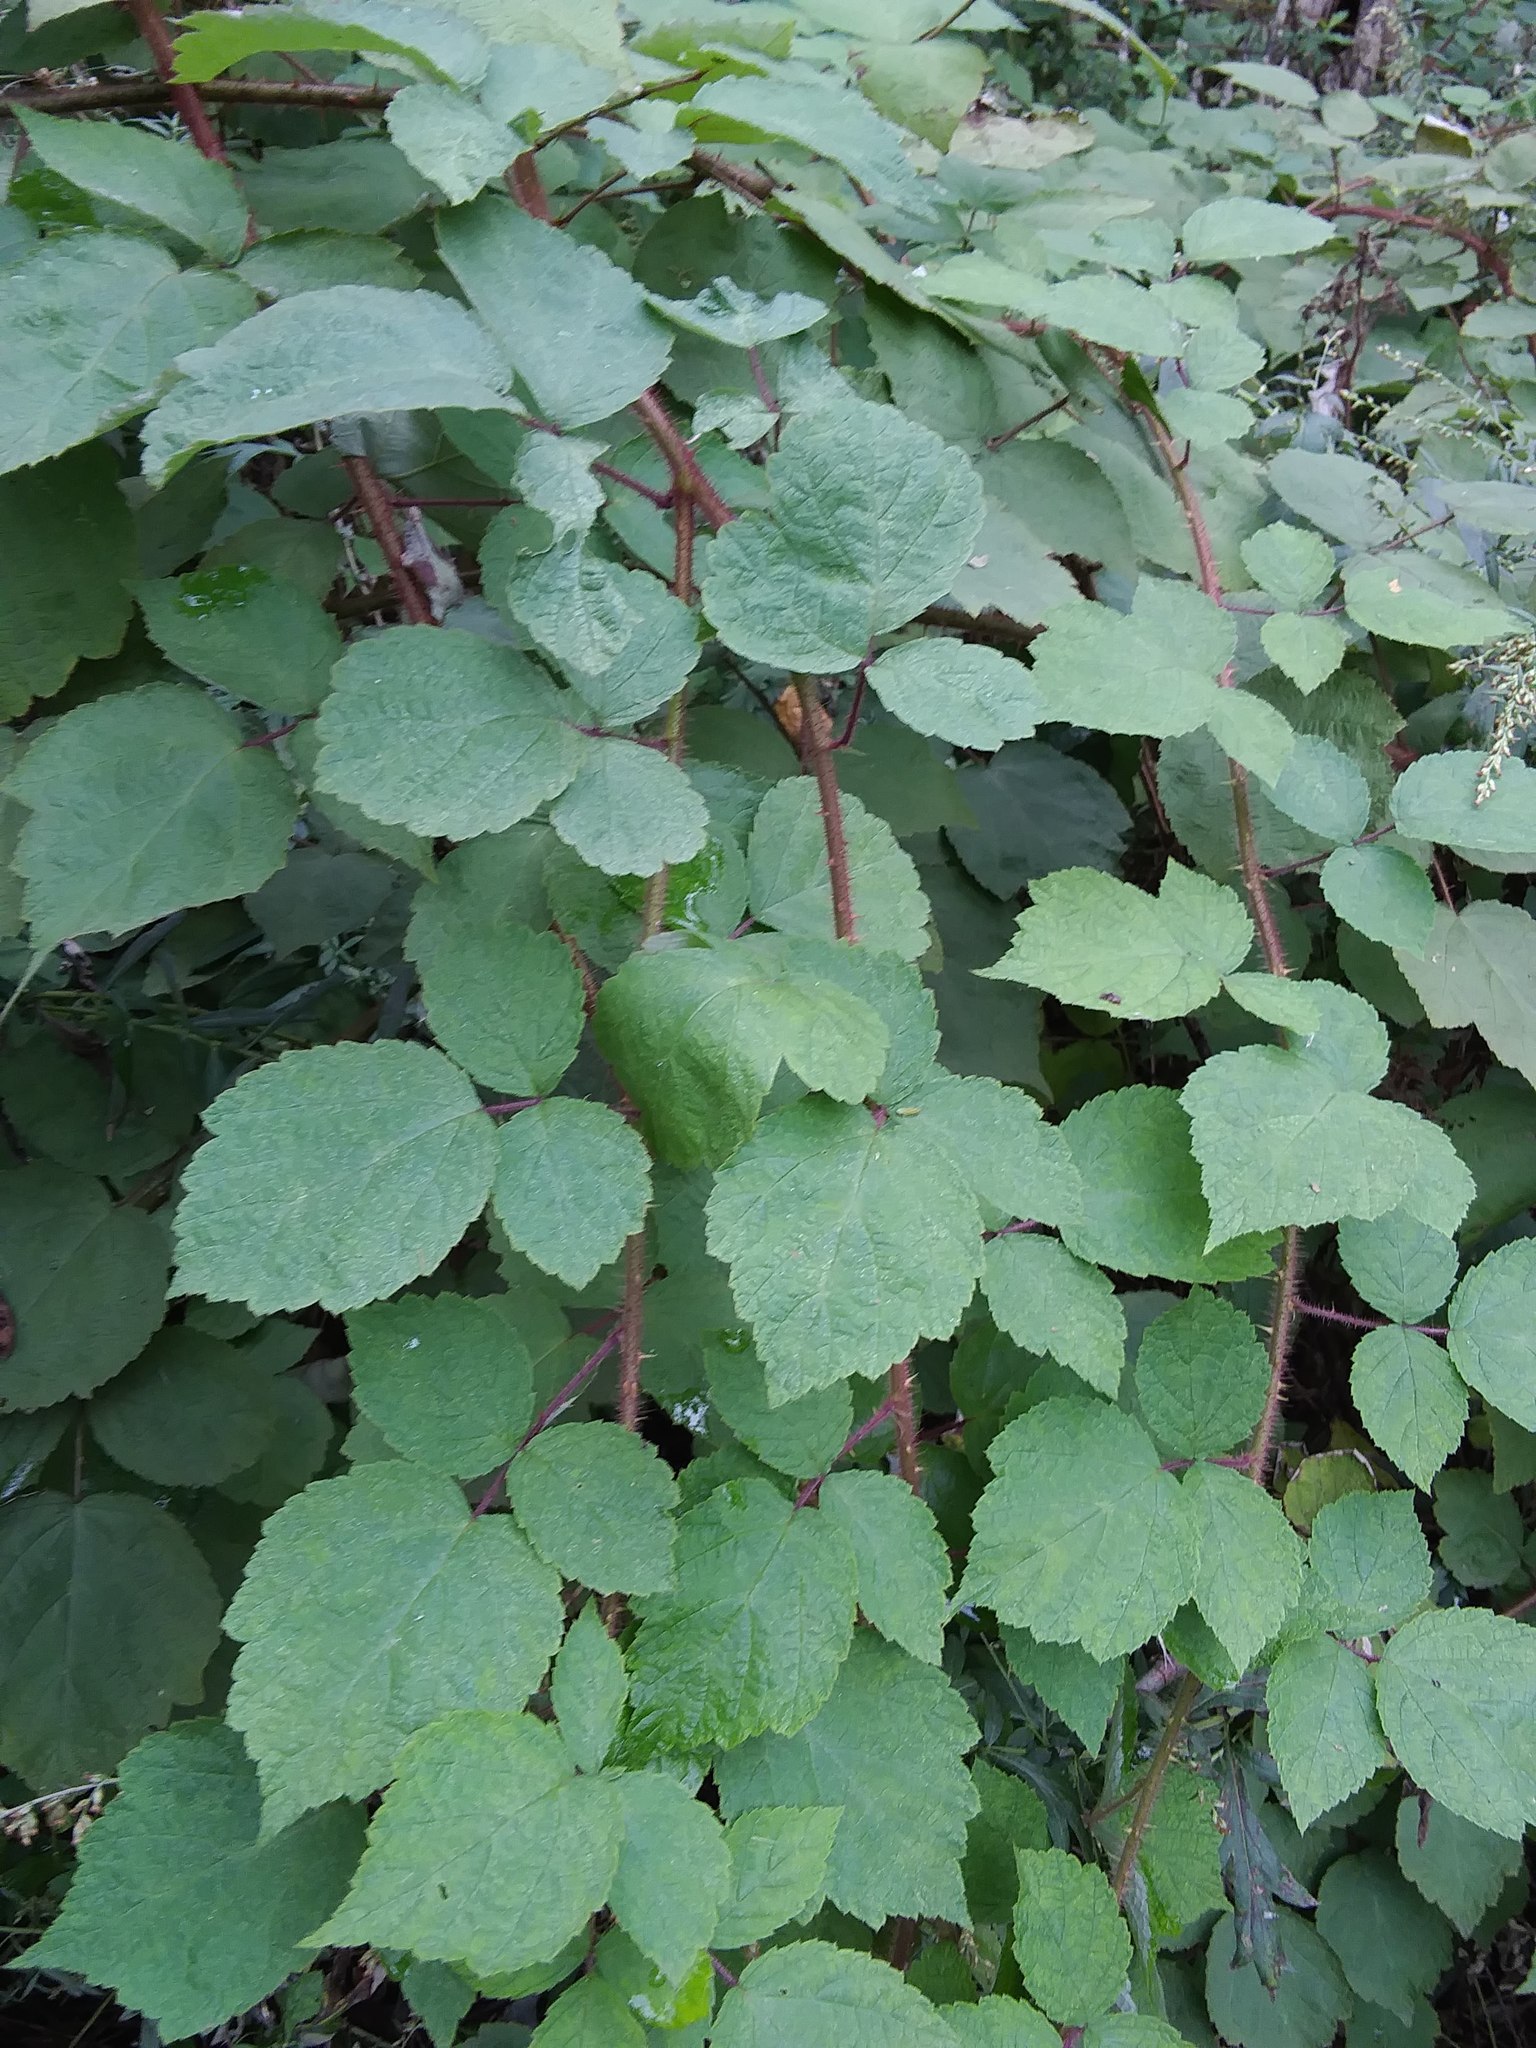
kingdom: Plantae
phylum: Tracheophyta
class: Magnoliopsida
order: Rosales
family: Rosaceae
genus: Rubus
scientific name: Rubus phoenicolasius
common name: Japanese wineberry
